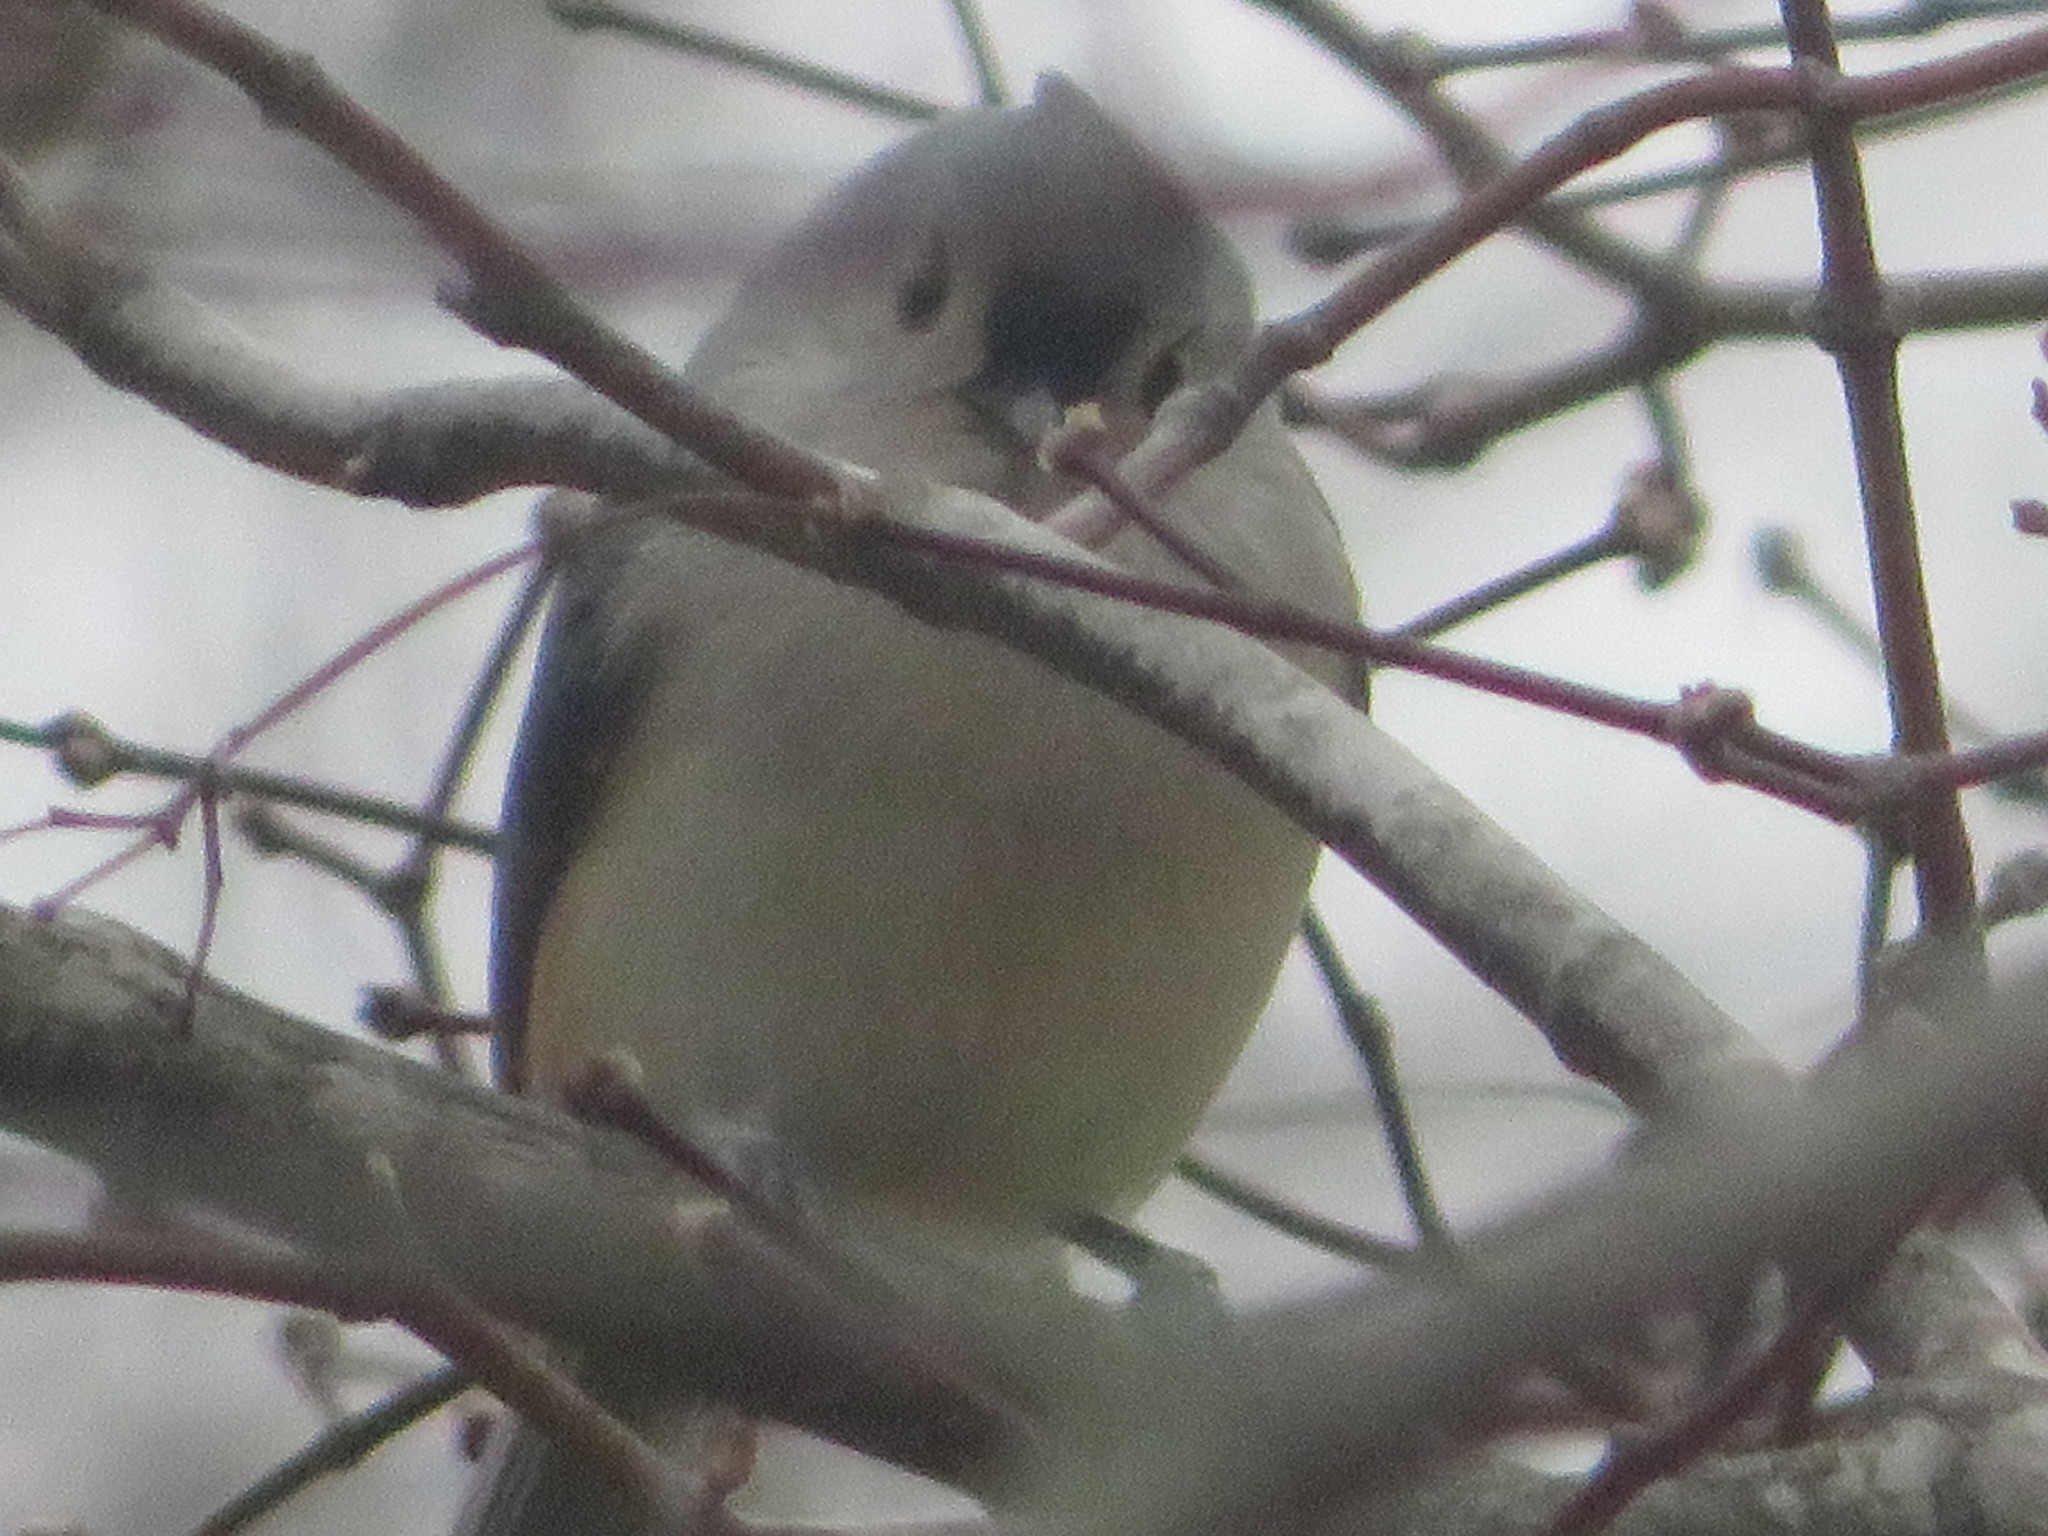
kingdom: Animalia
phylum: Chordata
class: Aves
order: Passeriformes
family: Paridae
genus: Baeolophus
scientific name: Baeolophus bicolor
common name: Tufted titmouse
